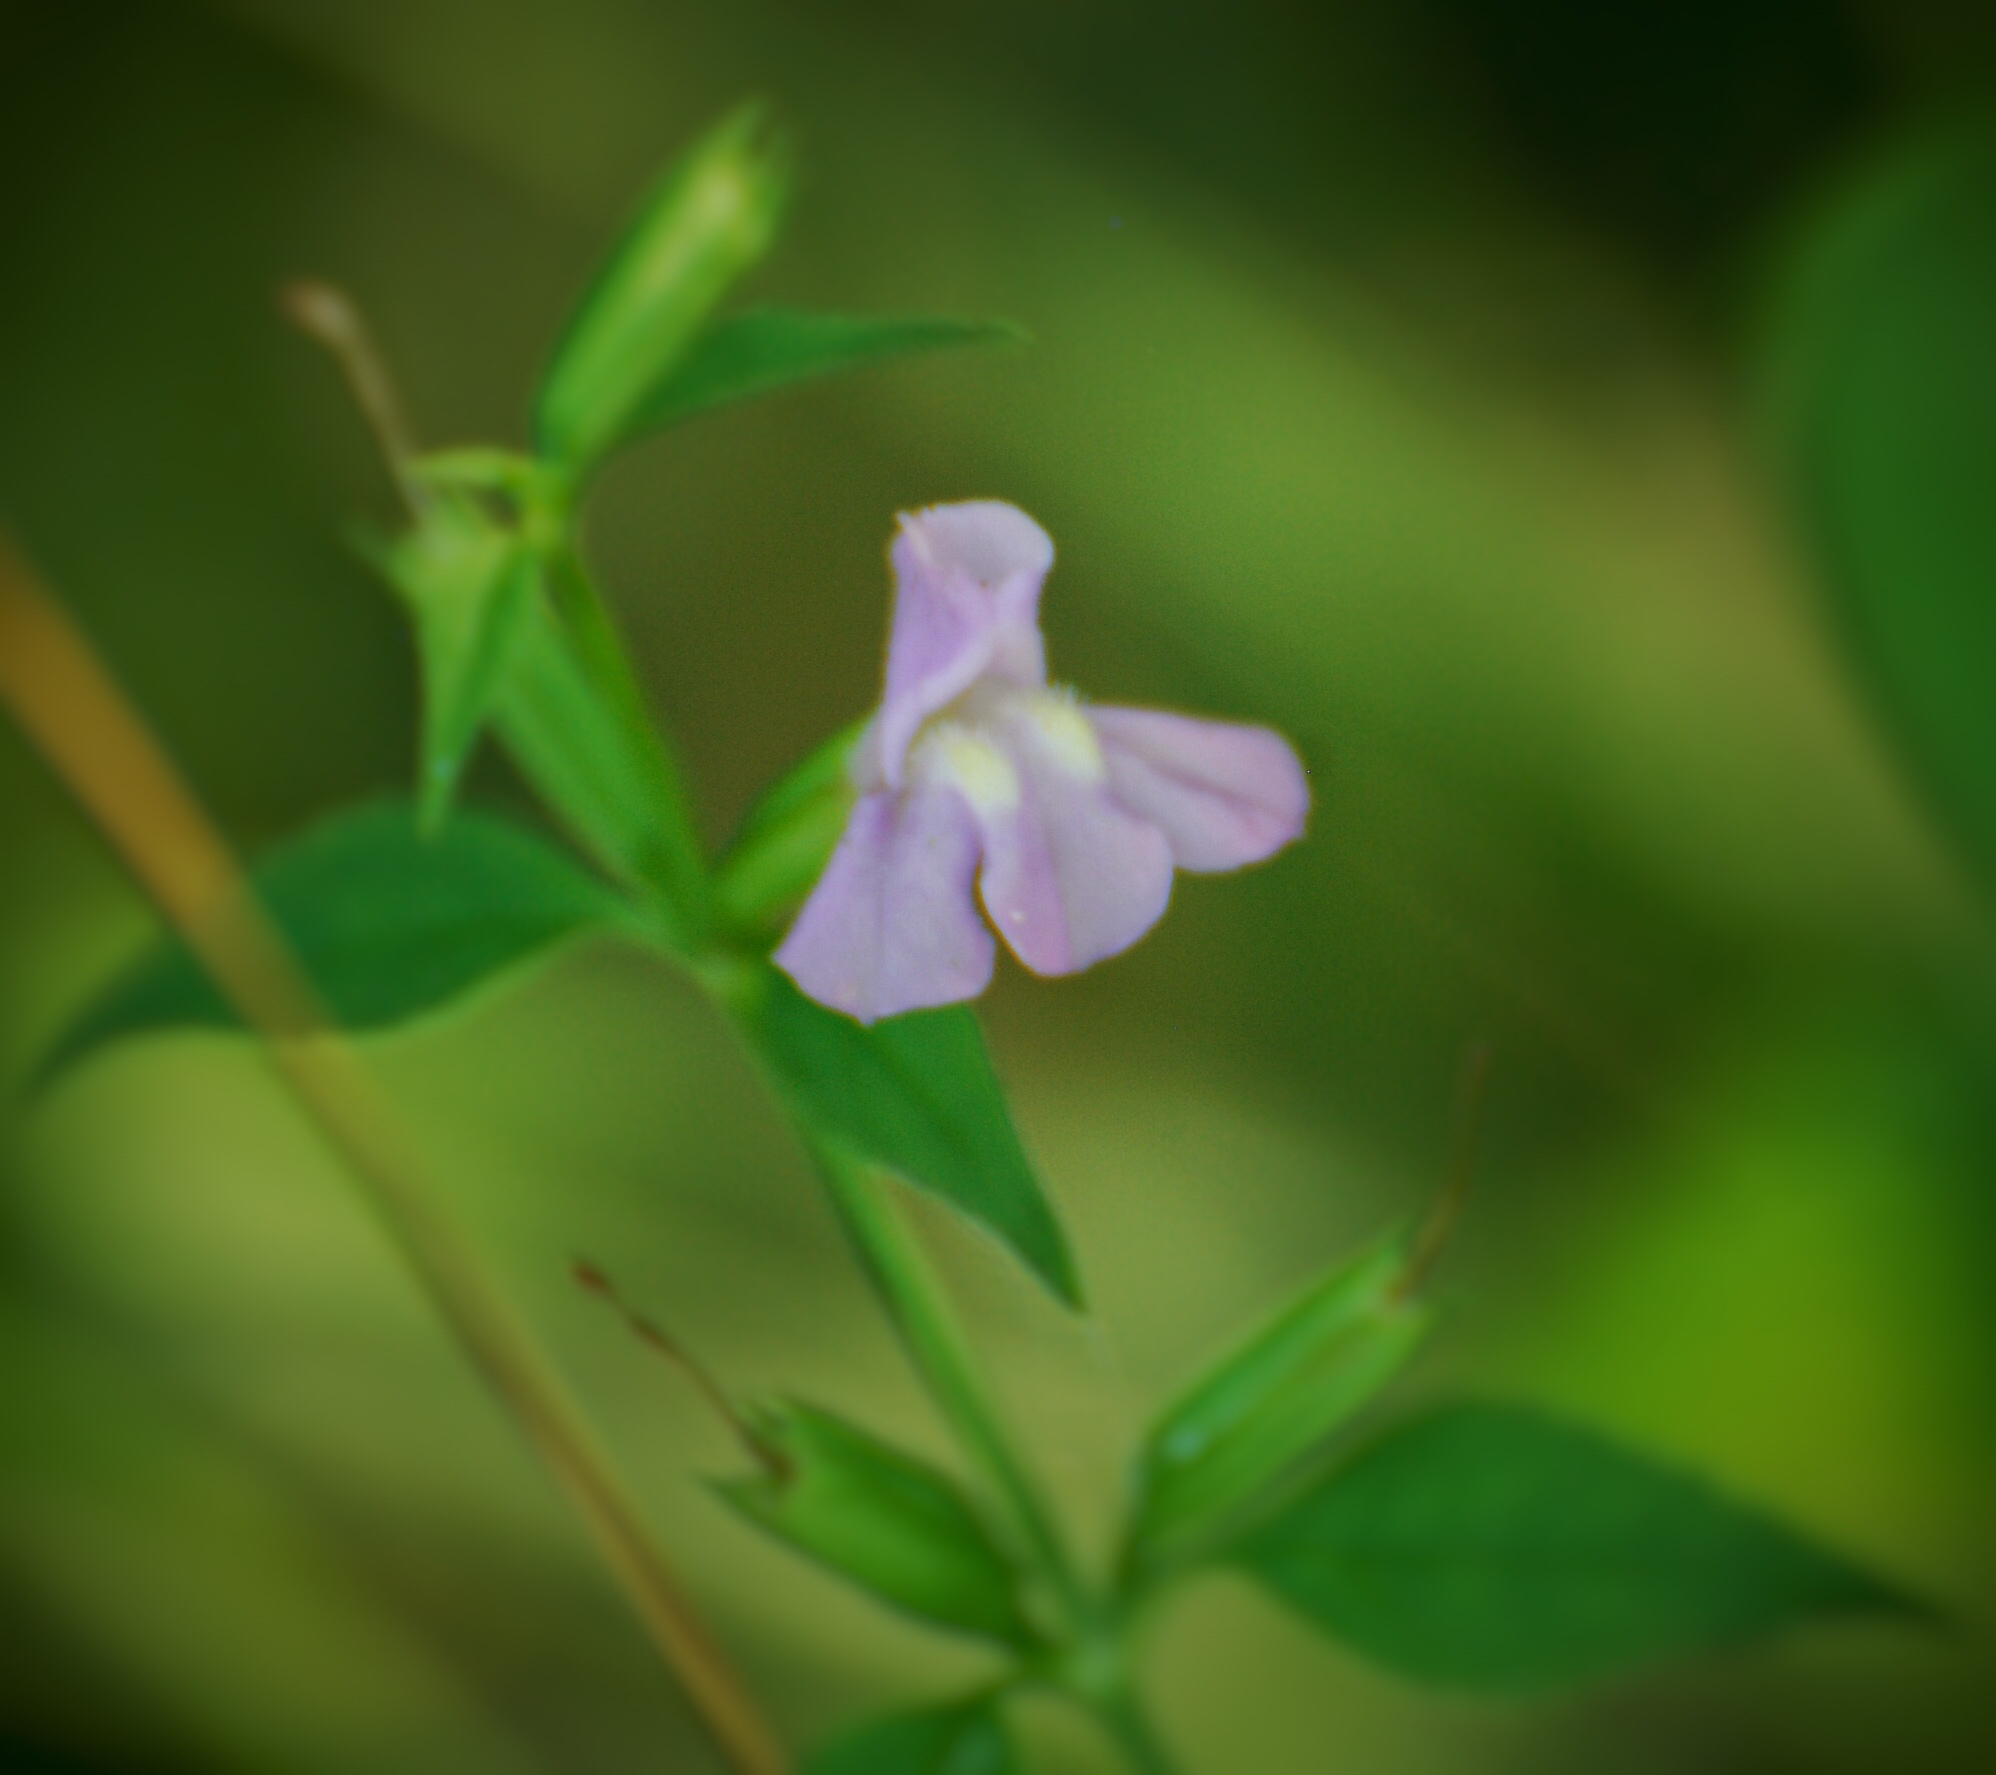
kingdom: Plantae
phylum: Tracheophyta
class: Magnoliopsida
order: Lamiales
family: Phrymaceae
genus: Mimulus
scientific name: Mimulus alatus
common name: Sharp-wing monkey-flower
